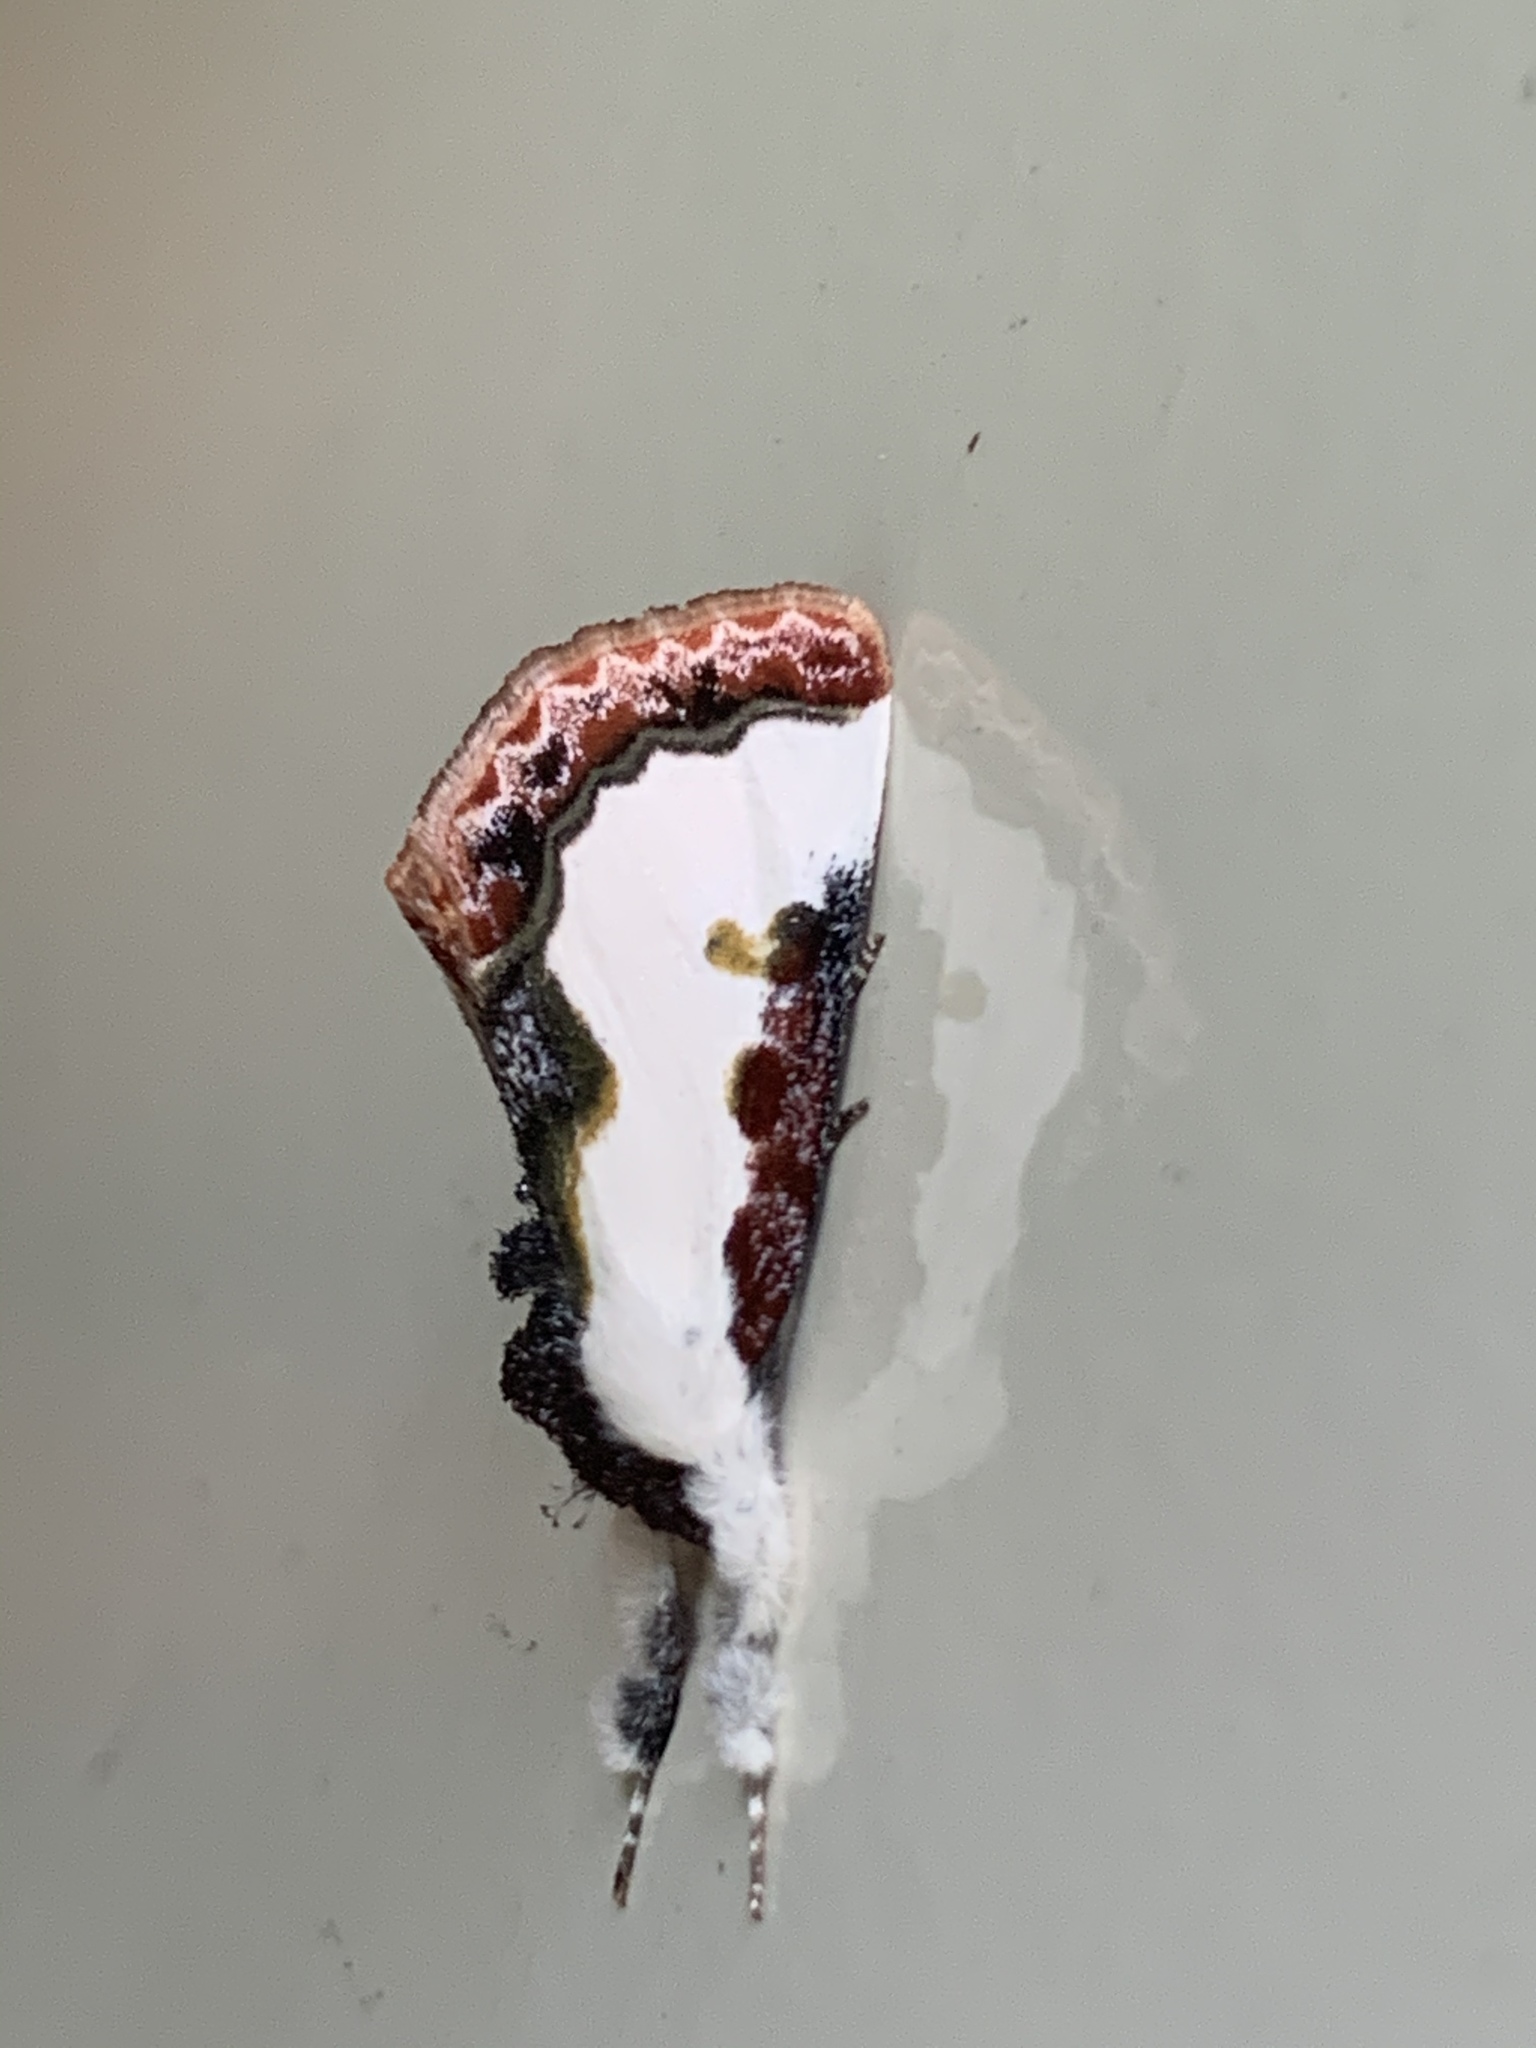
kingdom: Animalia
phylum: Arthropoda
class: Insecta
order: Lepidoptera
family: Noctuidae
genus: Eudryas
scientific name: Eudryas unio
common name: Pearly wood-nymph
